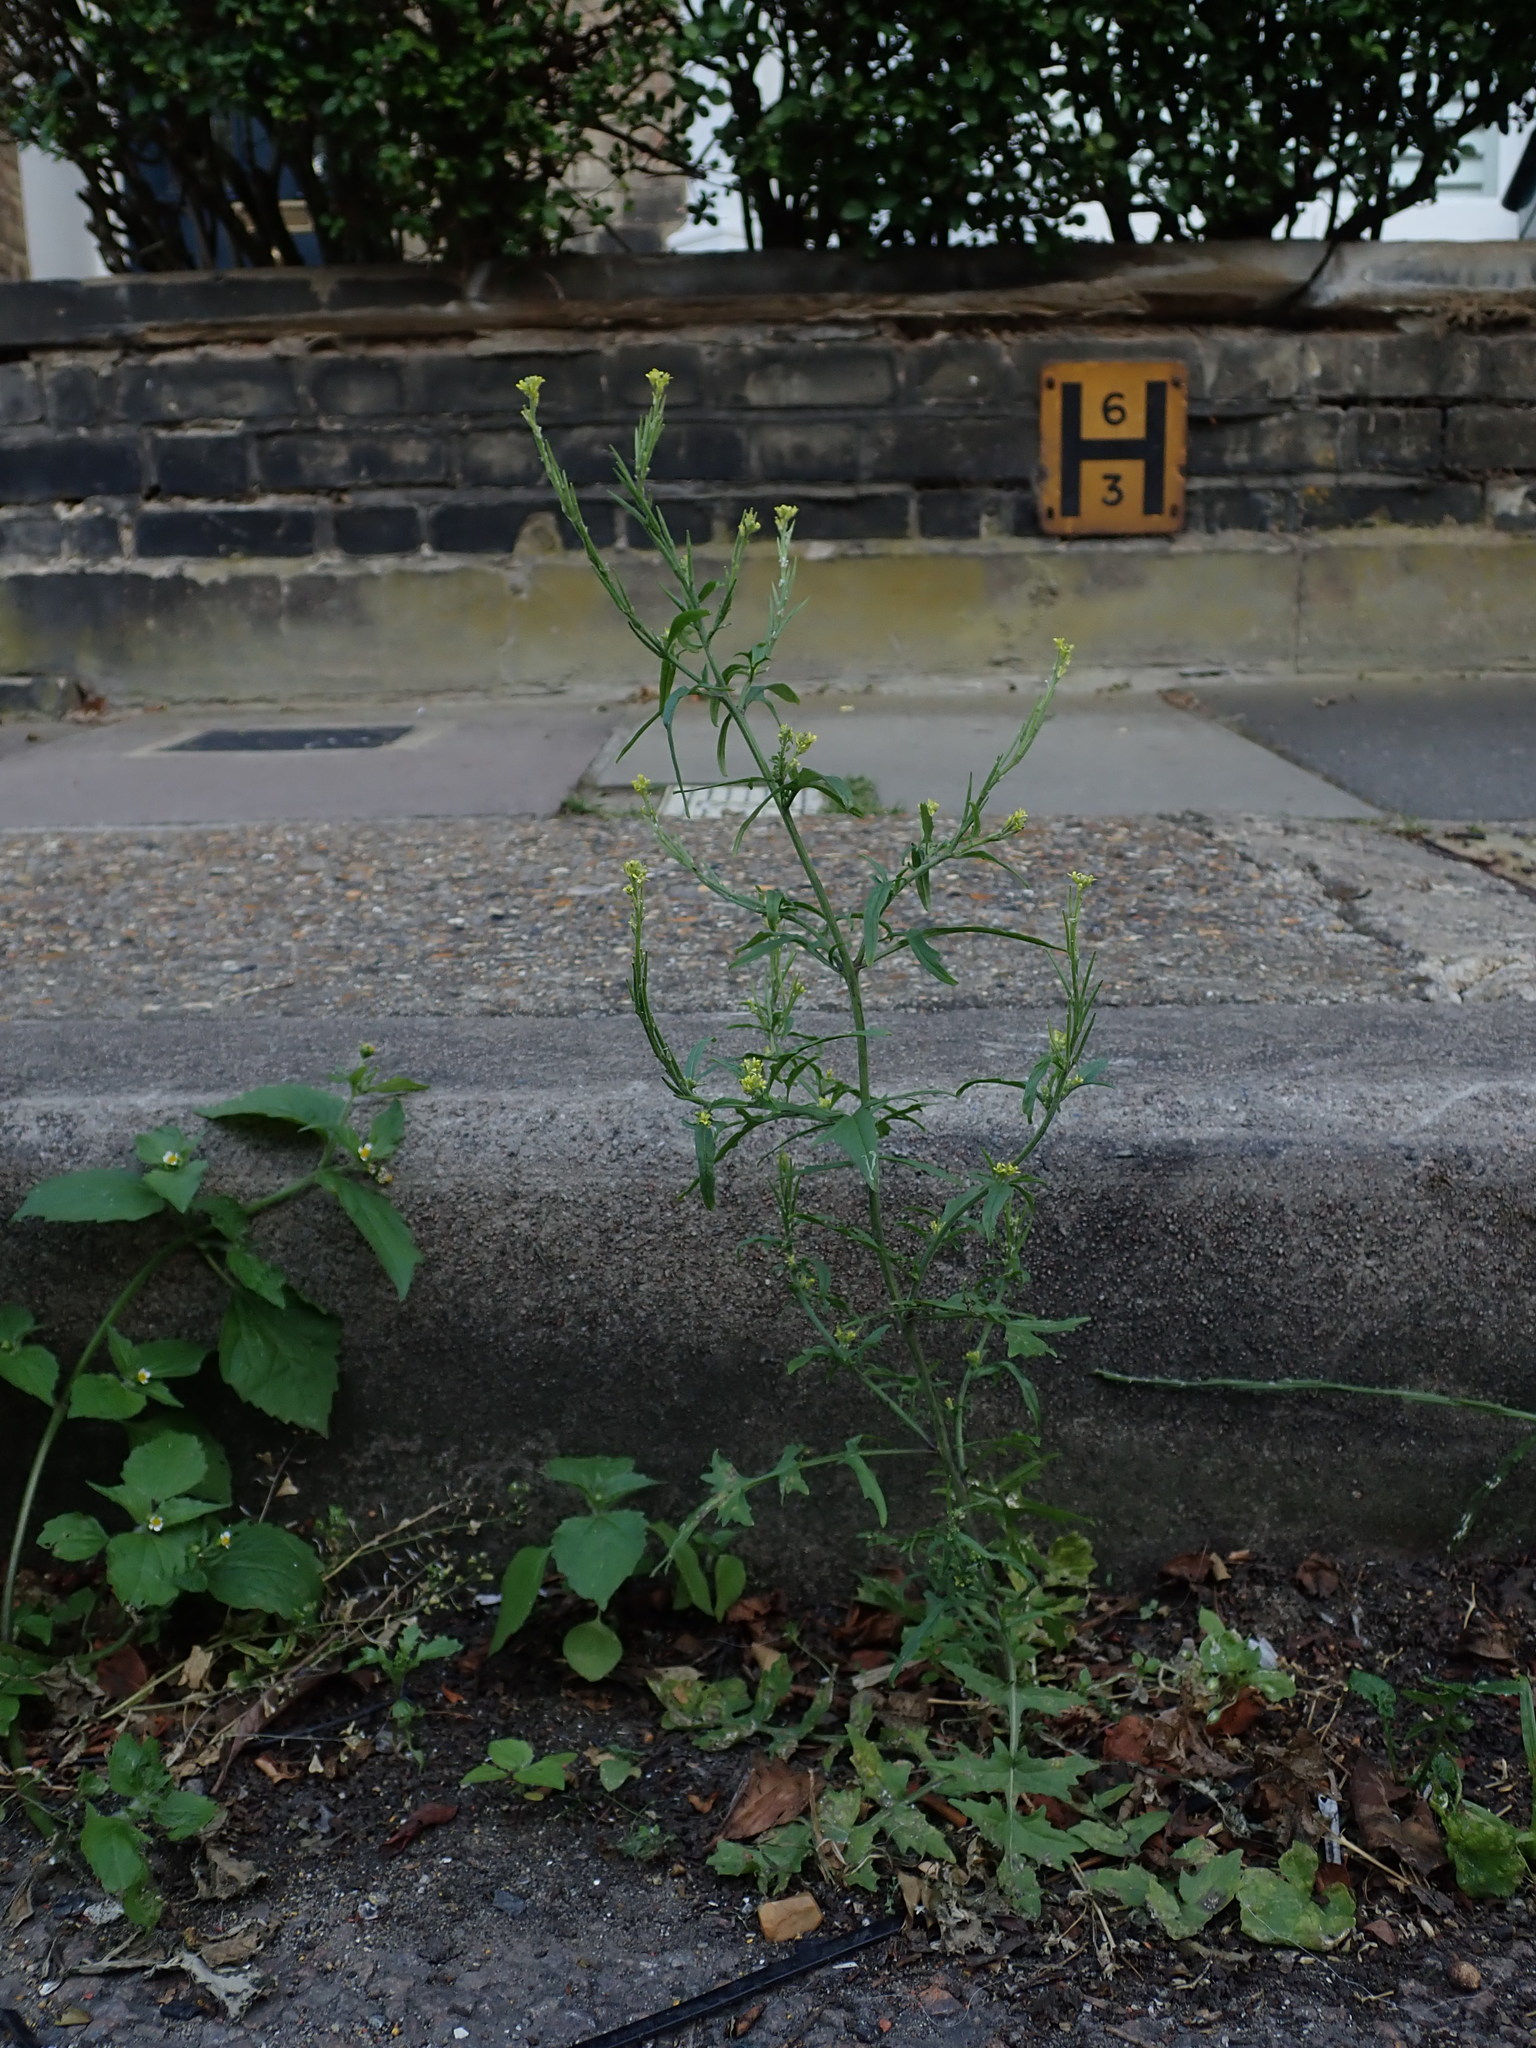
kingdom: Plantae
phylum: Tracheophyta
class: Magnoliopsida
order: Brassicales
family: Brassicaceae
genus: Sisymbrium
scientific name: Sisymbrium officinale
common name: Hedge mustard
